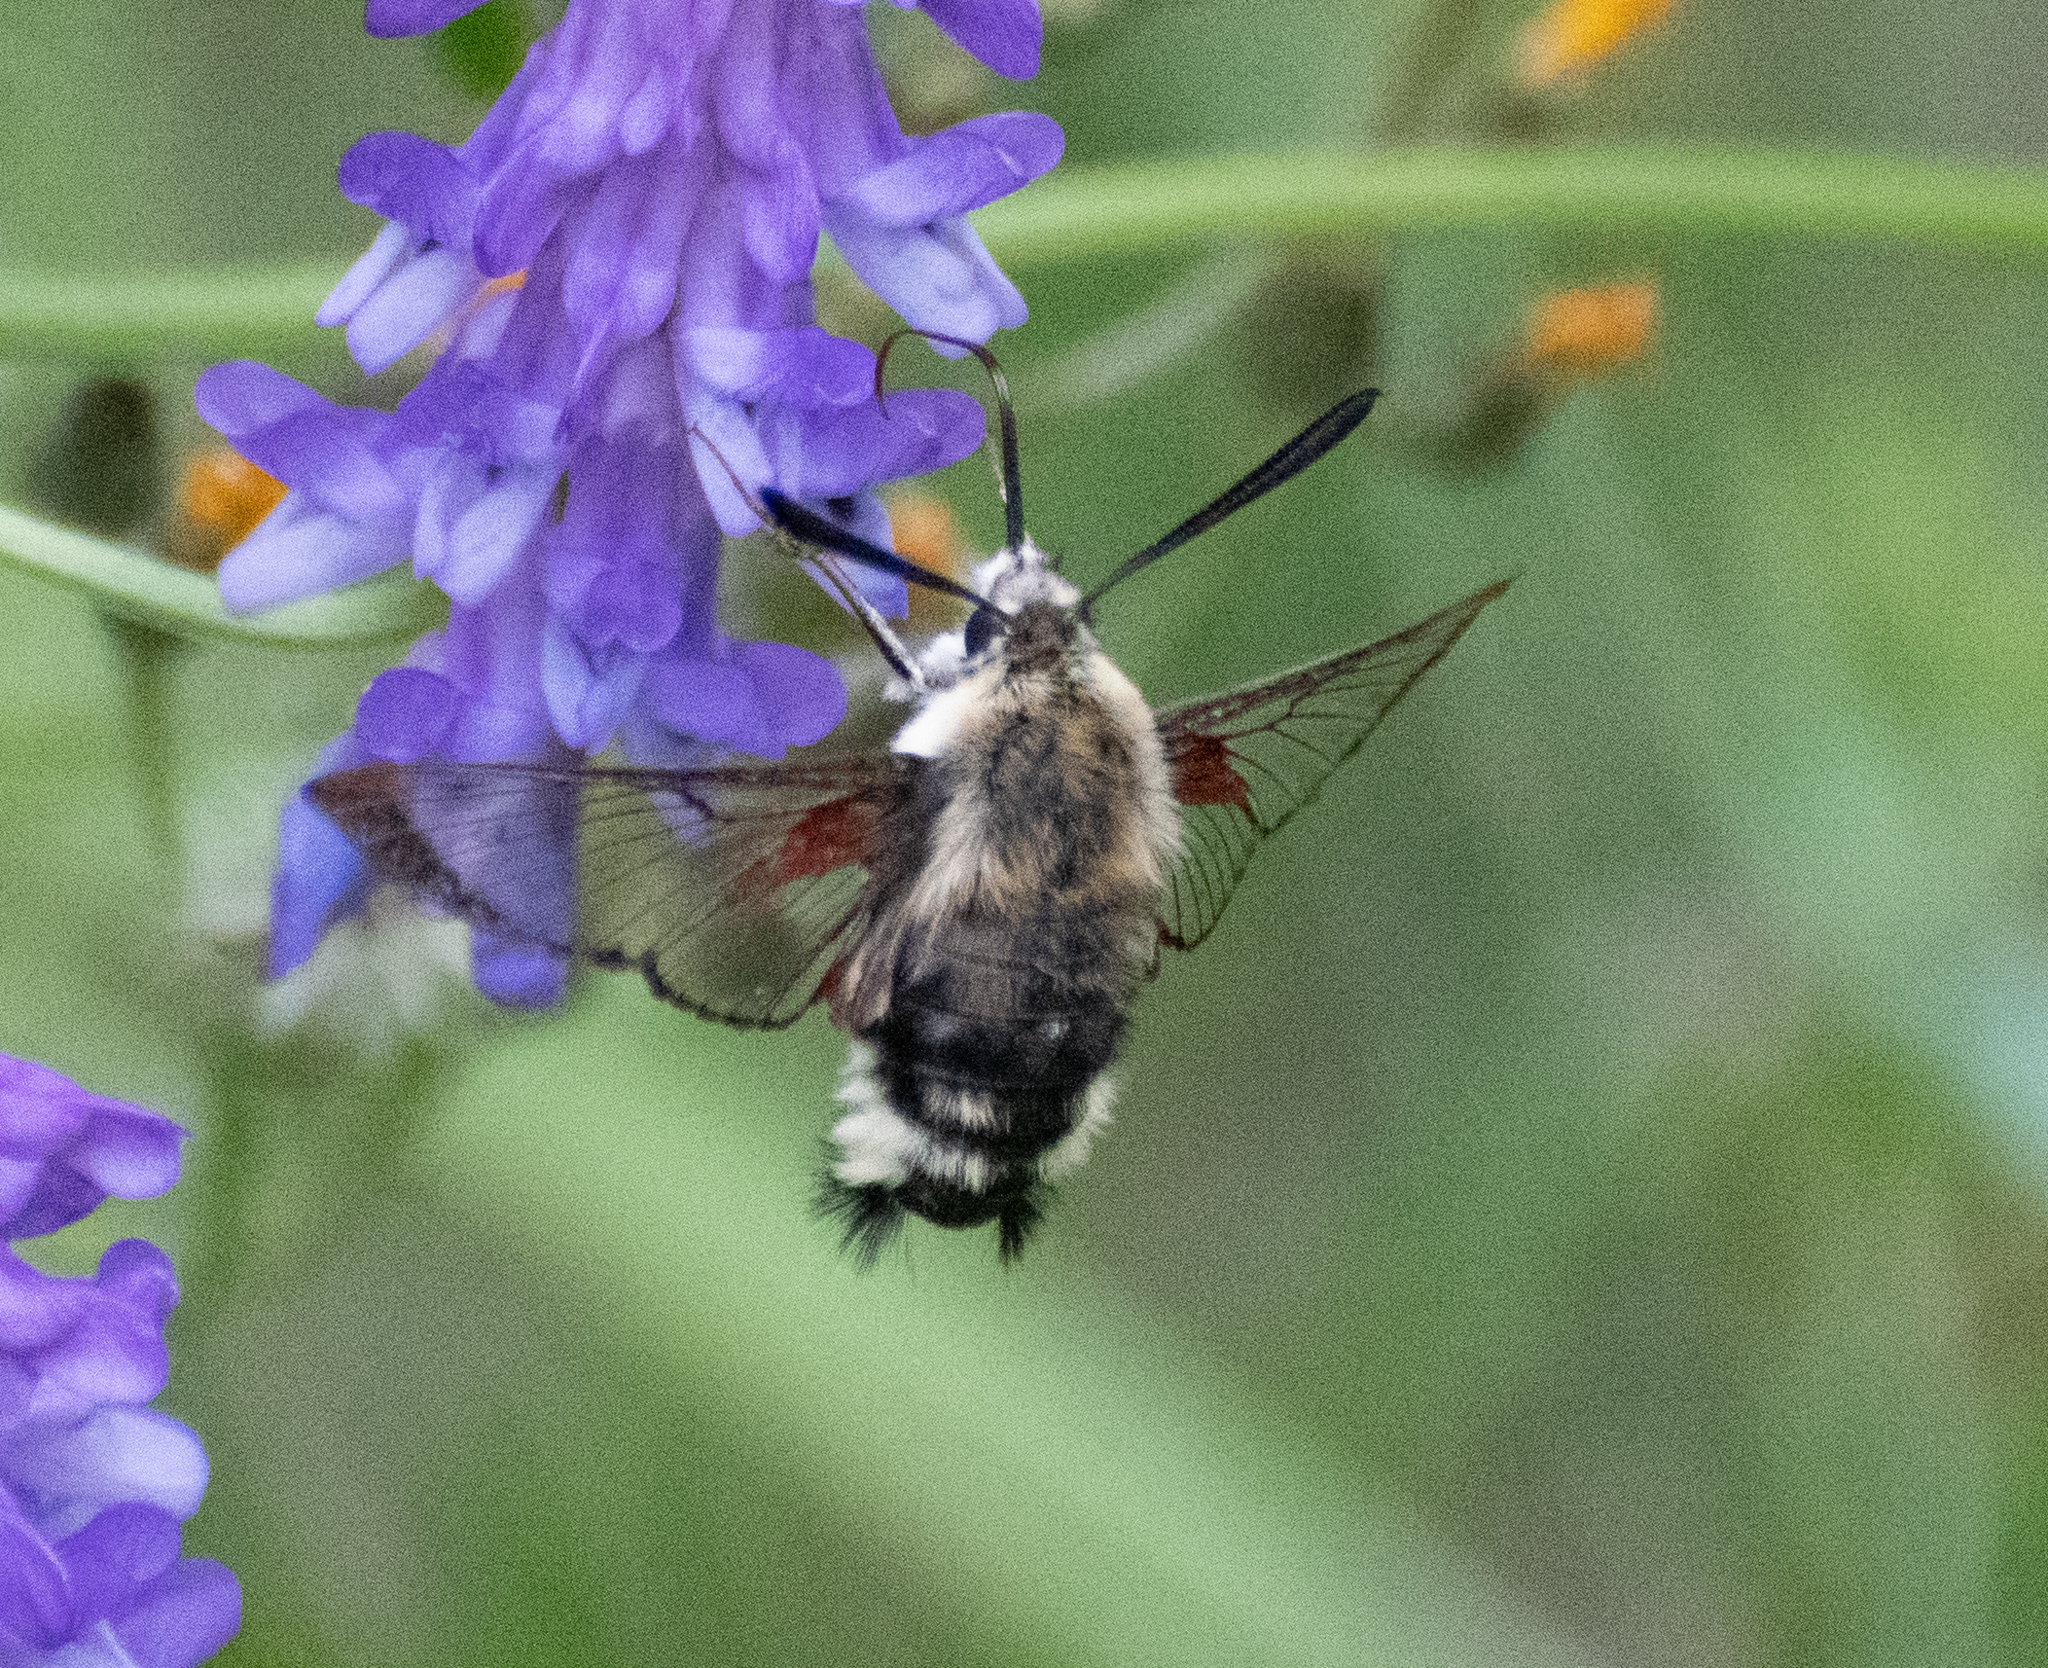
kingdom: Animalia
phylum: Arthropoda
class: Insecta
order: Lepidoptera
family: Sphingidae
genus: Hemaris
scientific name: Hemaris thetis
